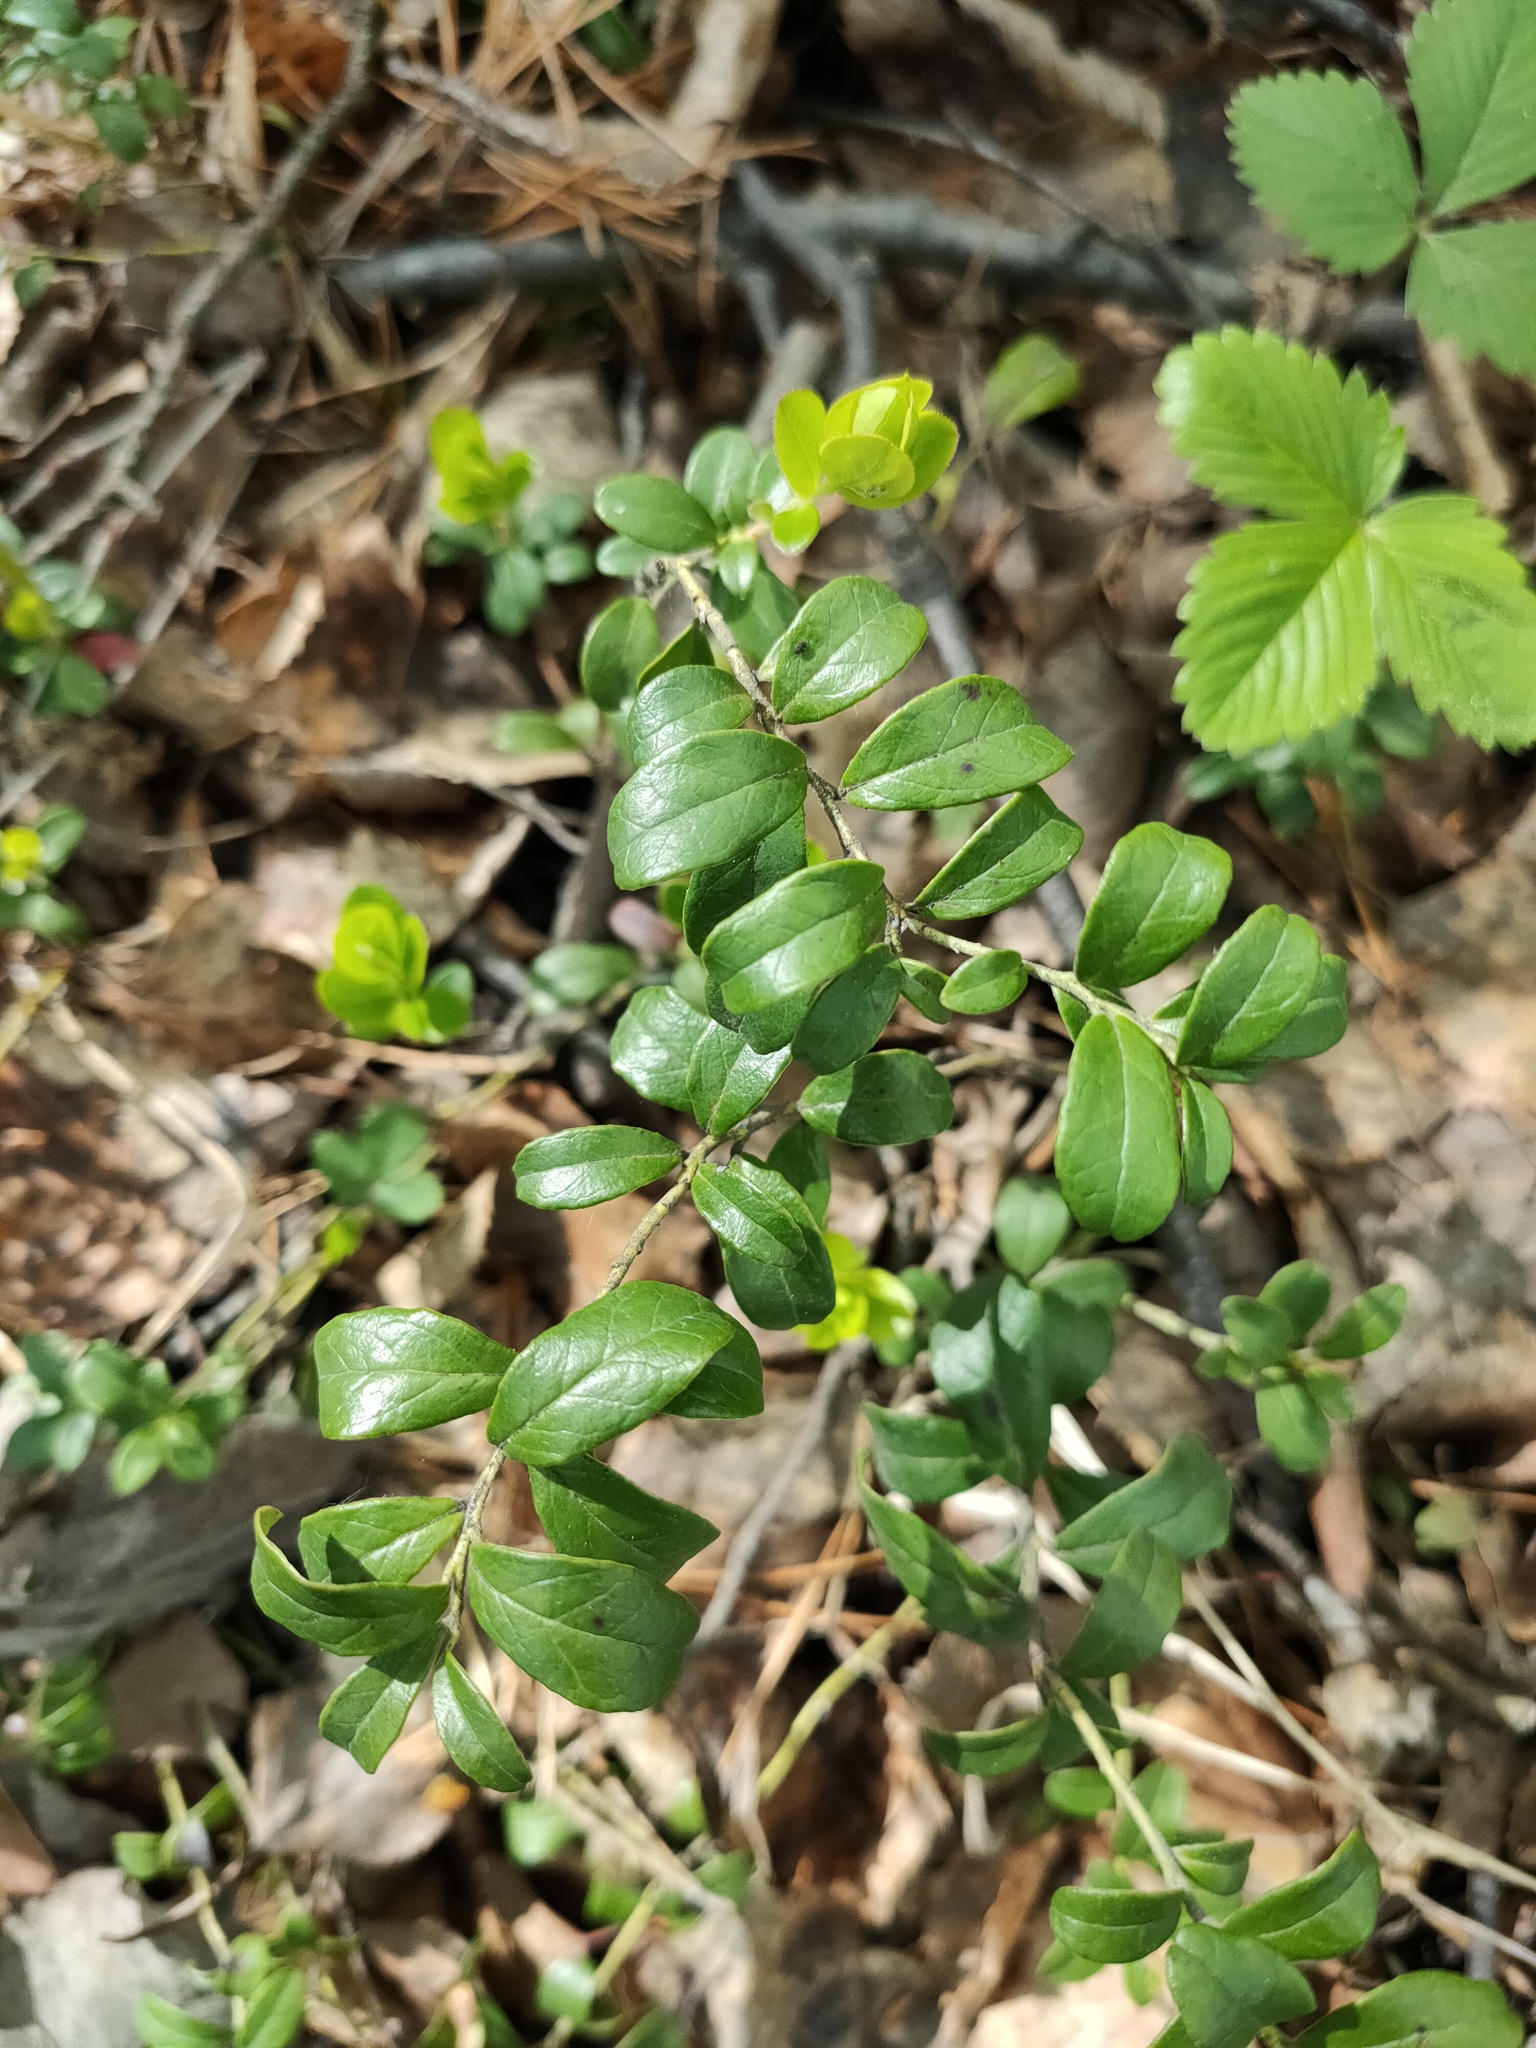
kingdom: Plantae
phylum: Tracheophyta
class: Magnoliopsida
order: Ericales
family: Ericaceae
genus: Vaccinium
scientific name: Vaccinium vitis-idaea
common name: Cowberry
